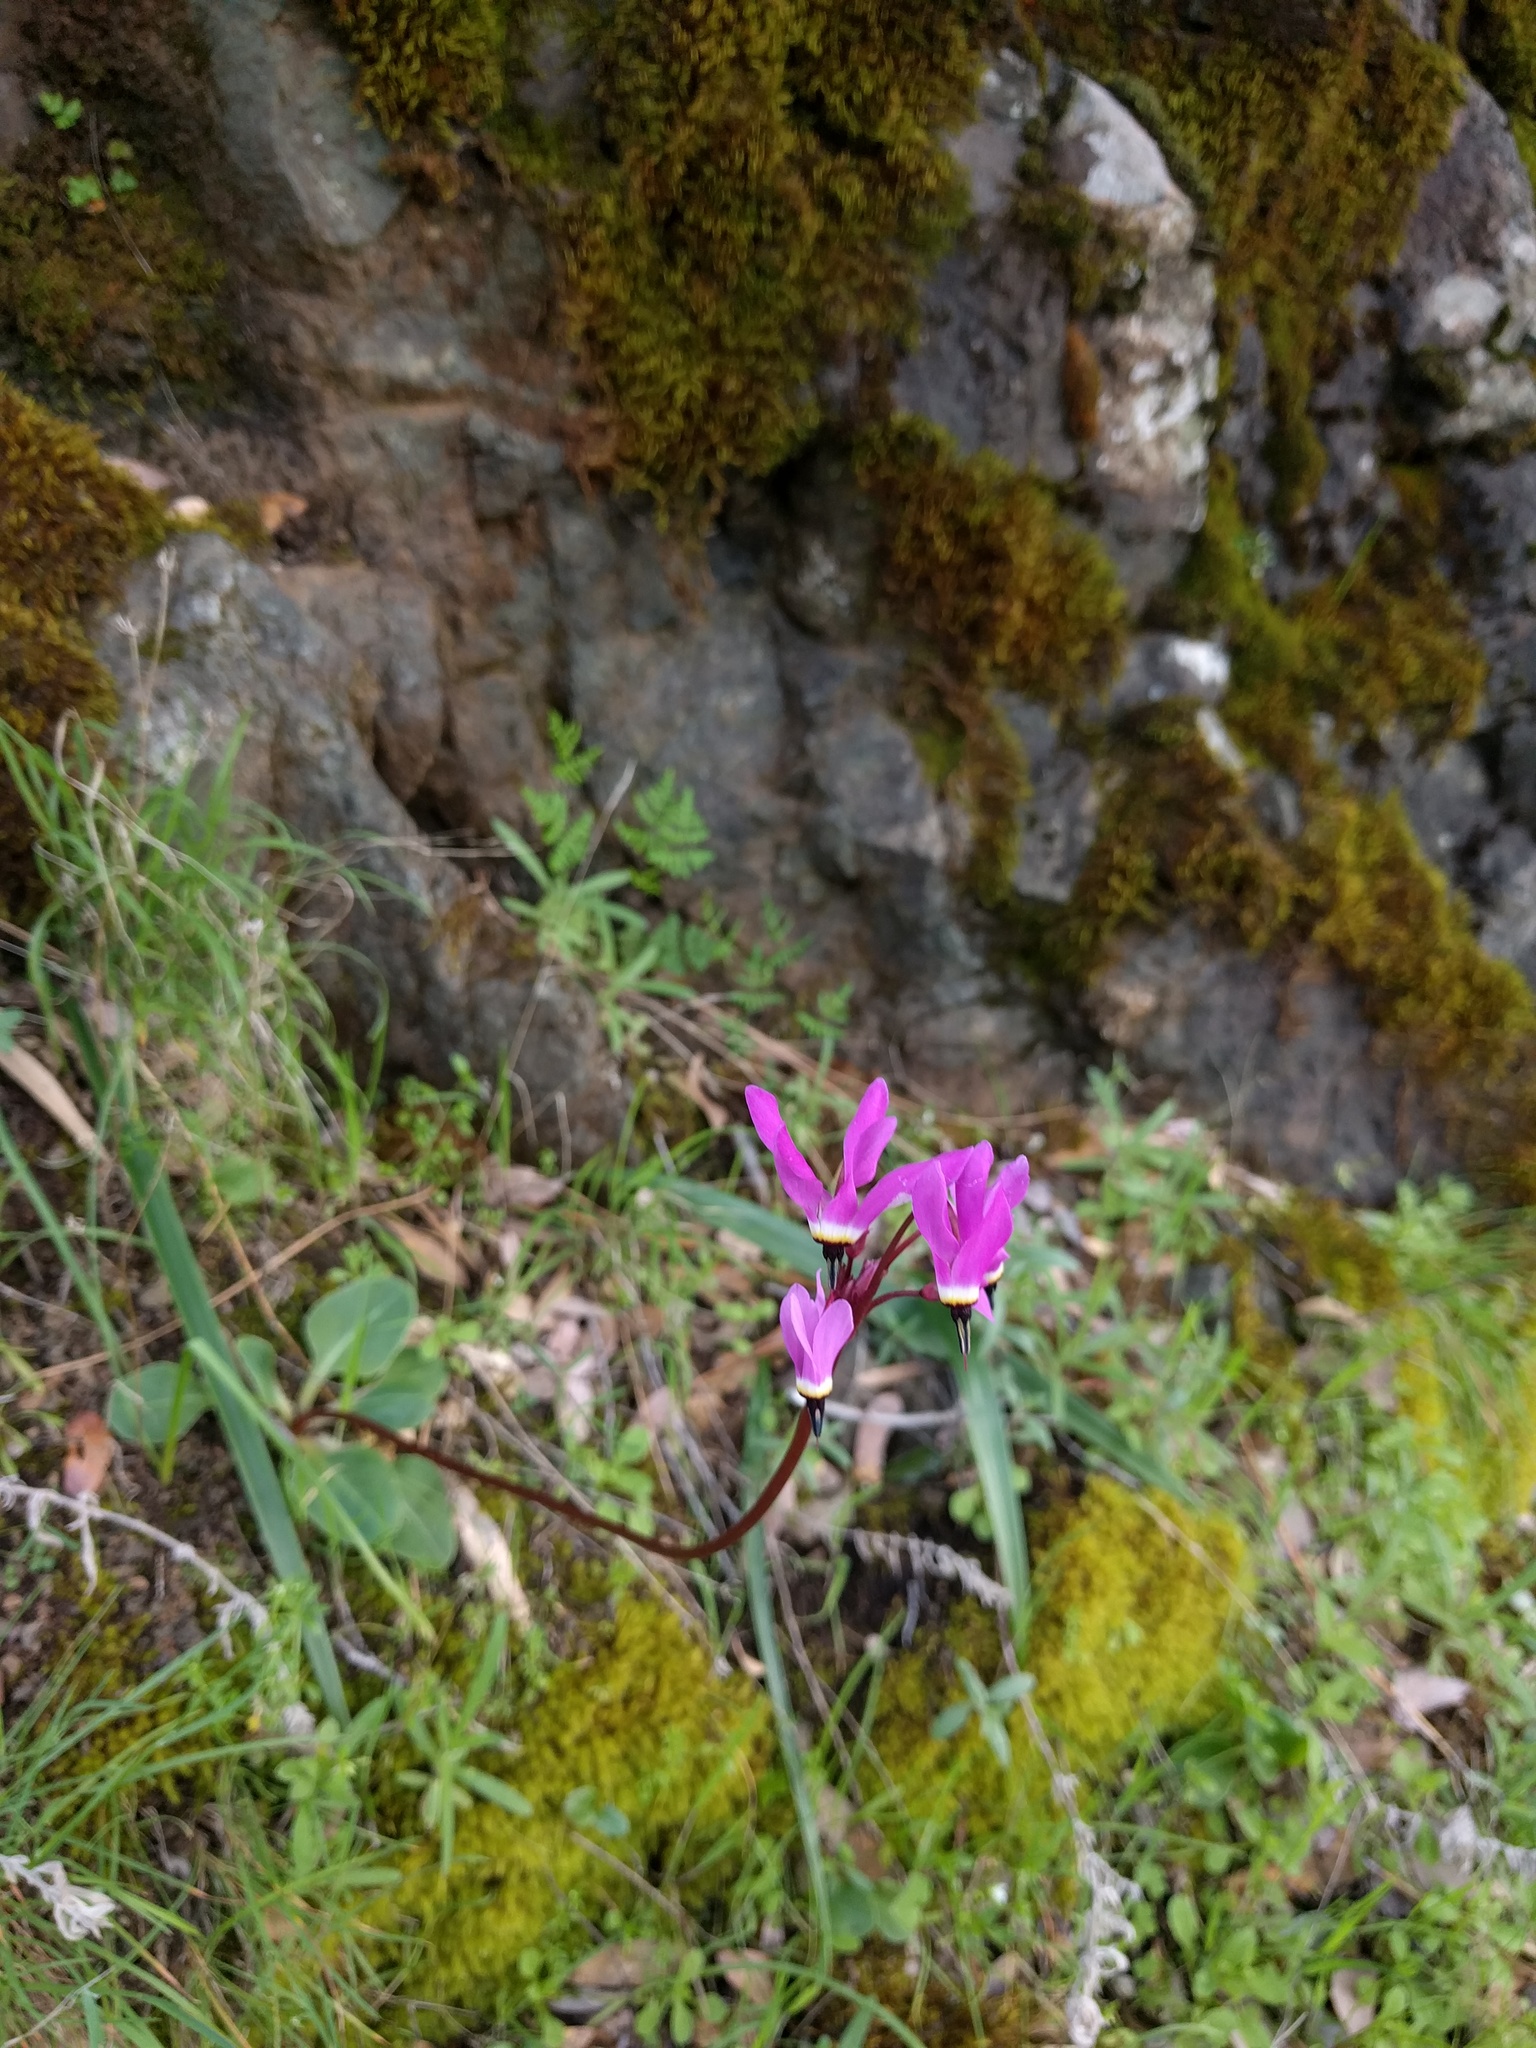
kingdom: Plantae
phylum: Tracheophyta
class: Magnoliopsida
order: Ericales
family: Primulaceae
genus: Dodecatheon
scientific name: Dodecatheon hendersonii
